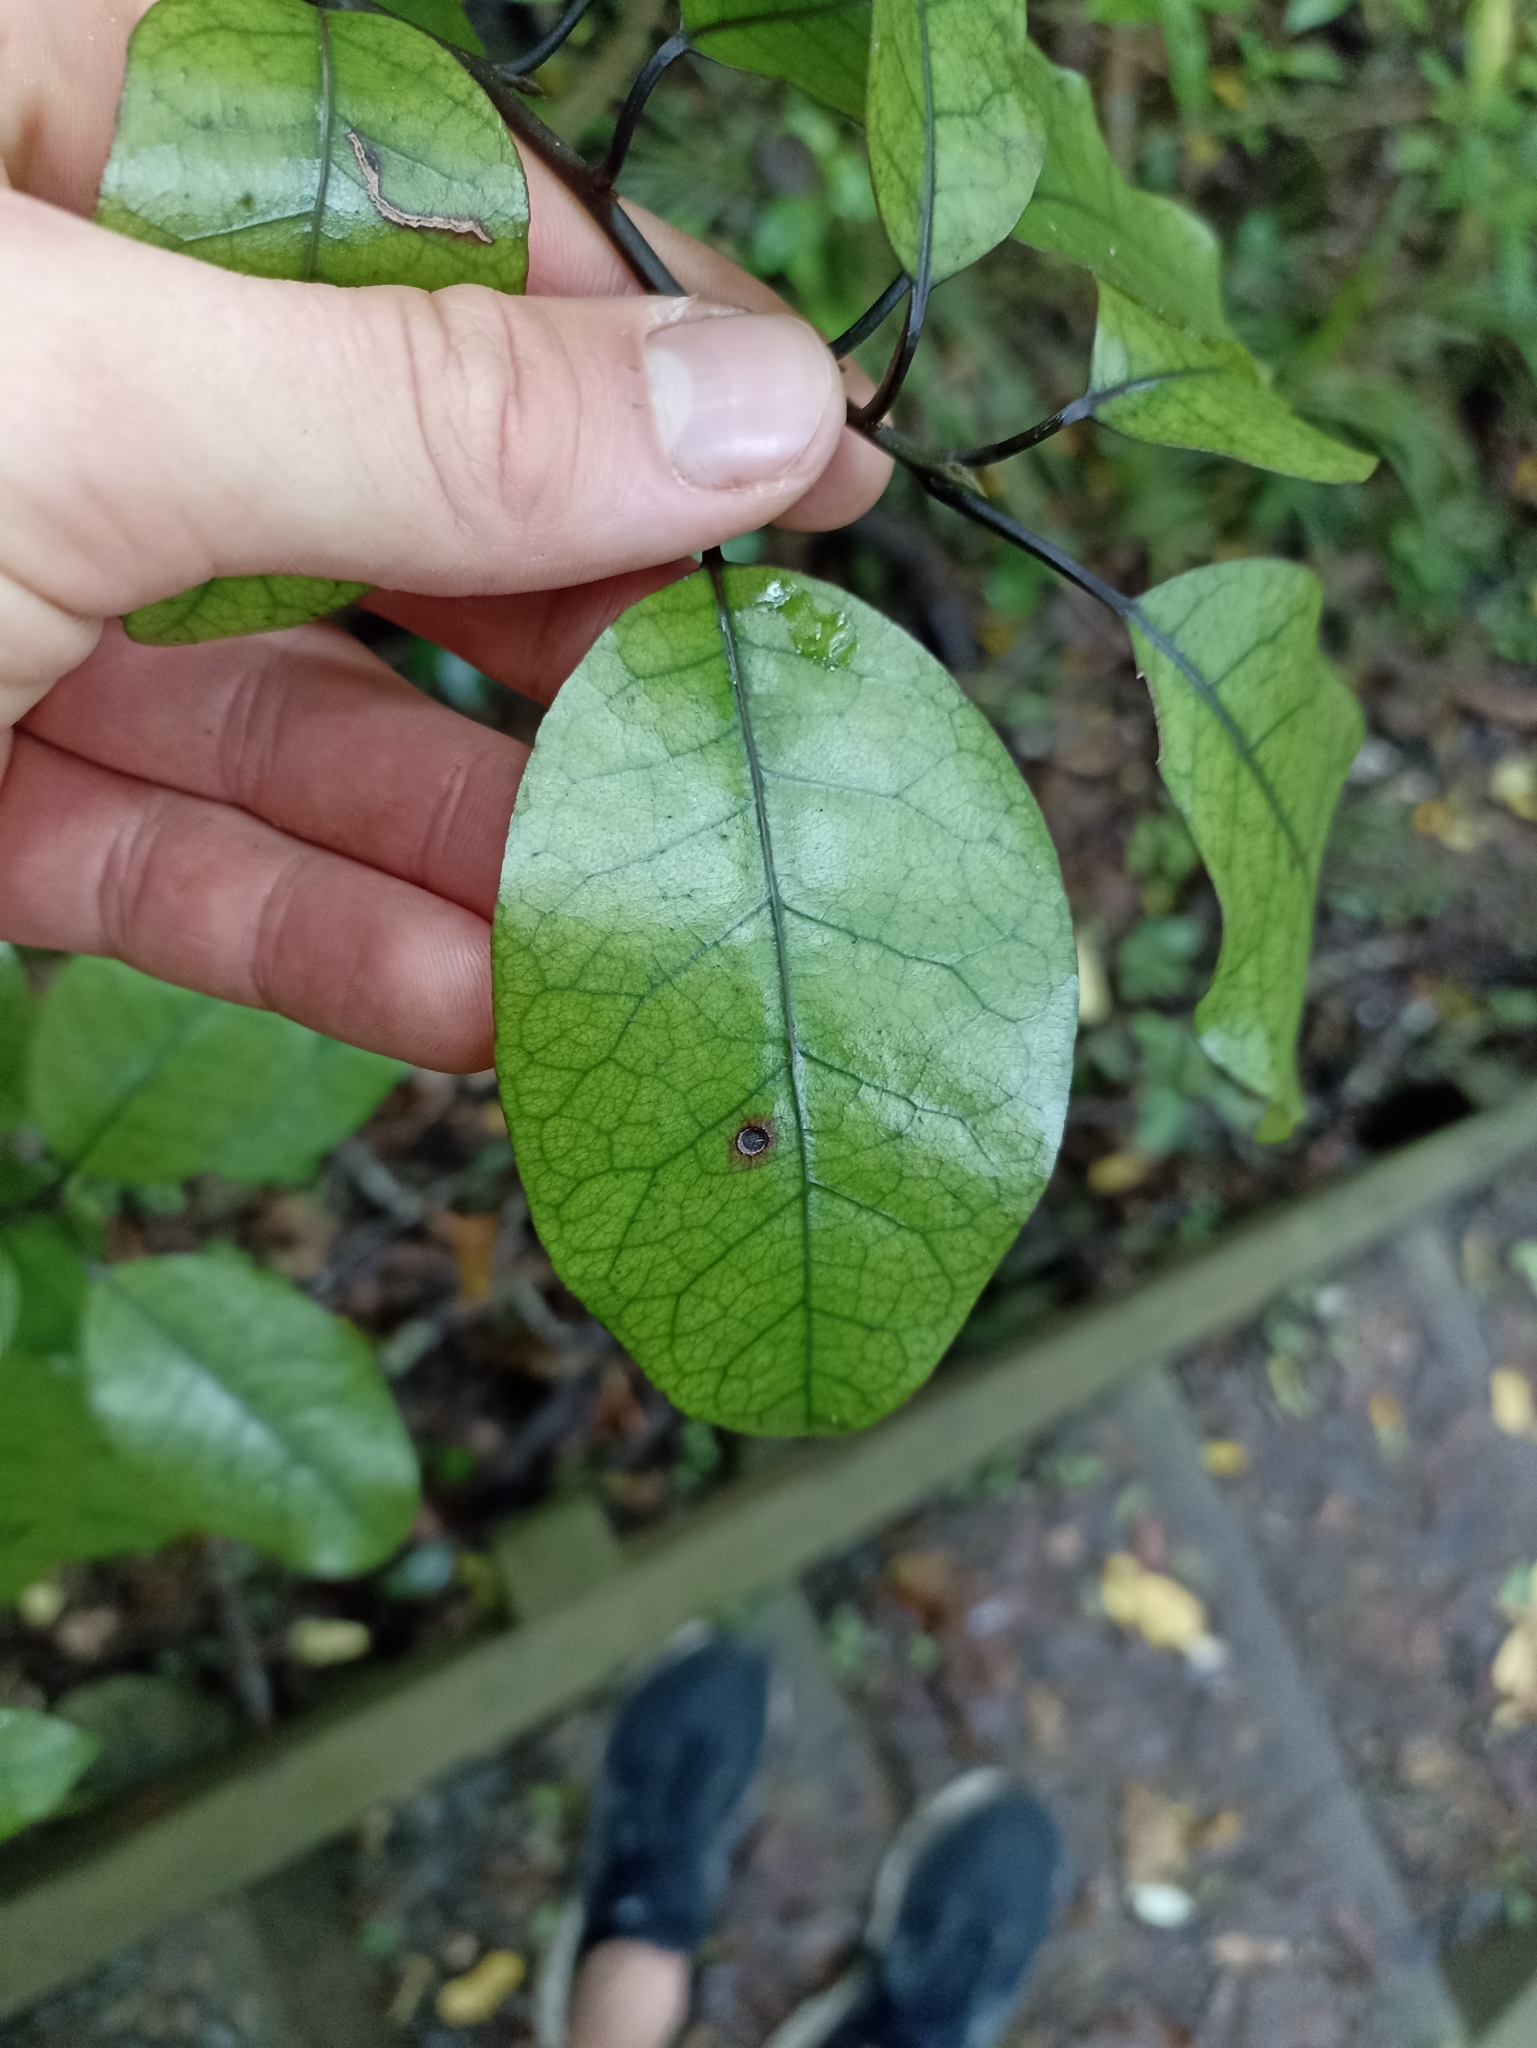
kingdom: Plantae
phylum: Tracheophyta
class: Magnoliopsida
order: Laurales
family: Lauraceae
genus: Litsea
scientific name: Litsea calicaris
